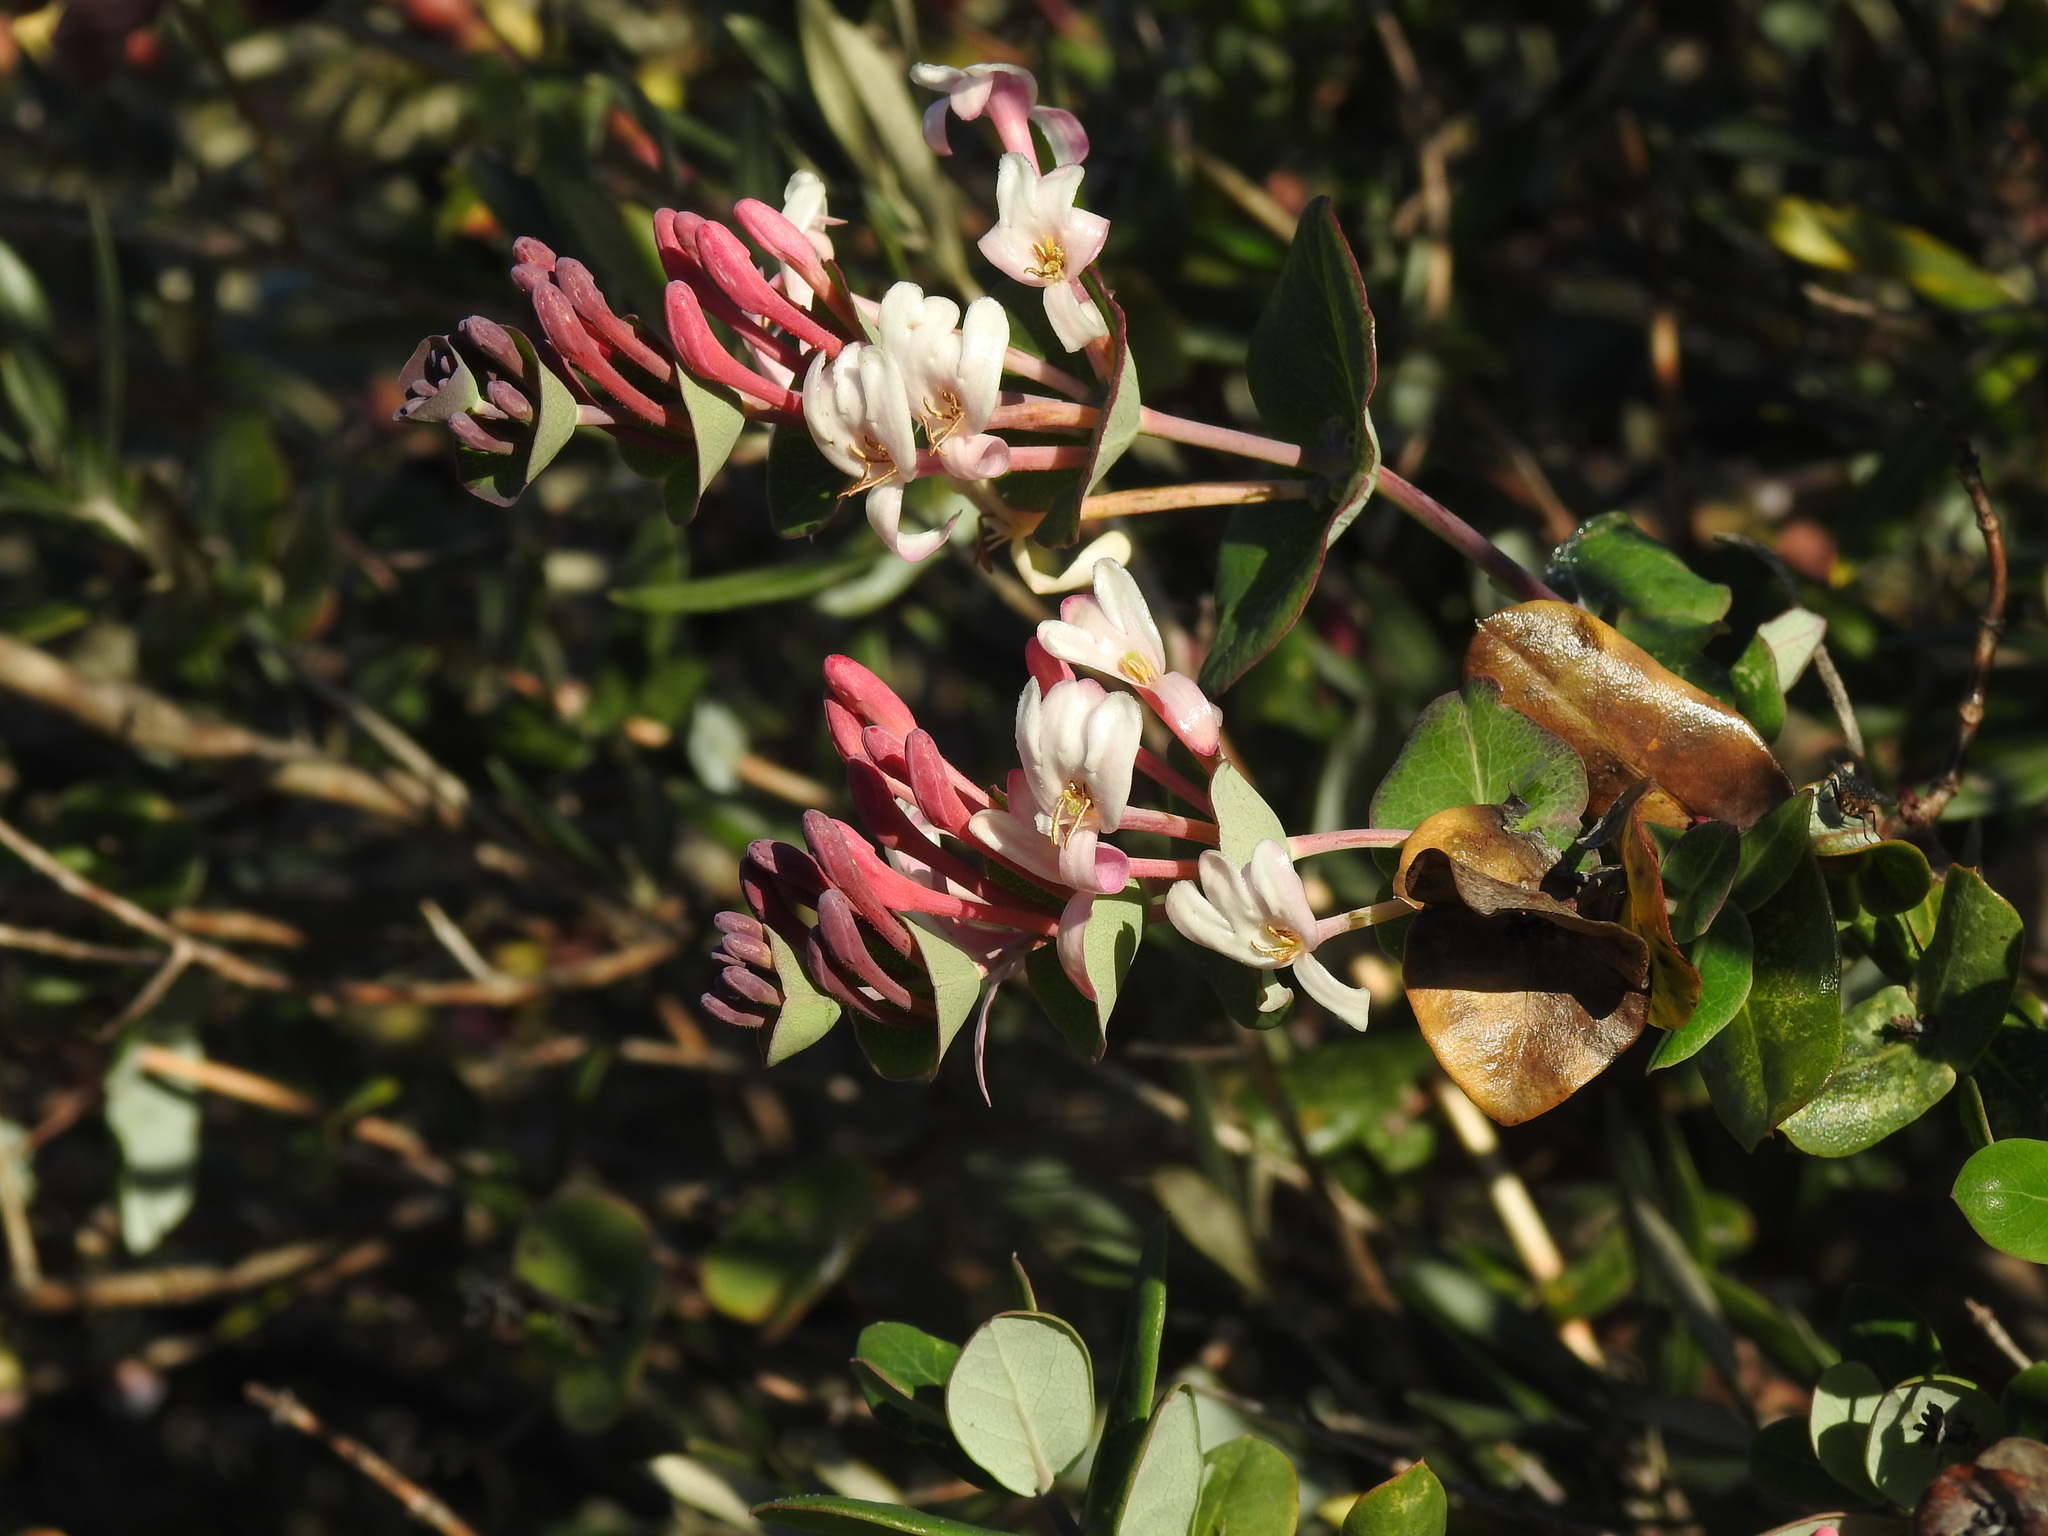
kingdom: Plantae
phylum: Tracheophyta
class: Magnoliopsida
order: Dipsacales
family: Caprifoliaceae
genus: Lonicera
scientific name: Lonicera implexa
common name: Minorca honeysuckle
